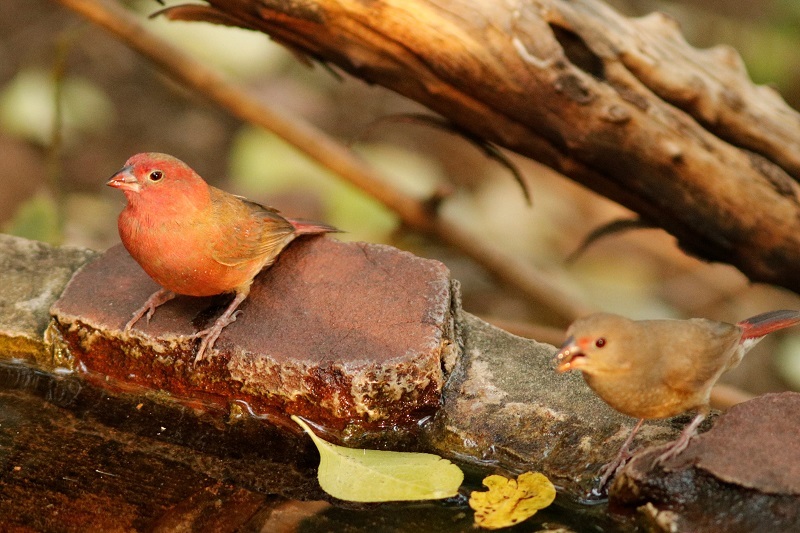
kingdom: Animalia
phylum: Chordata
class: Aves
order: Passeriformes
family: Estrildidae
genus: Lagonosticta
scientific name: Lagonosticta senegala
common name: Red-billed firefinch
